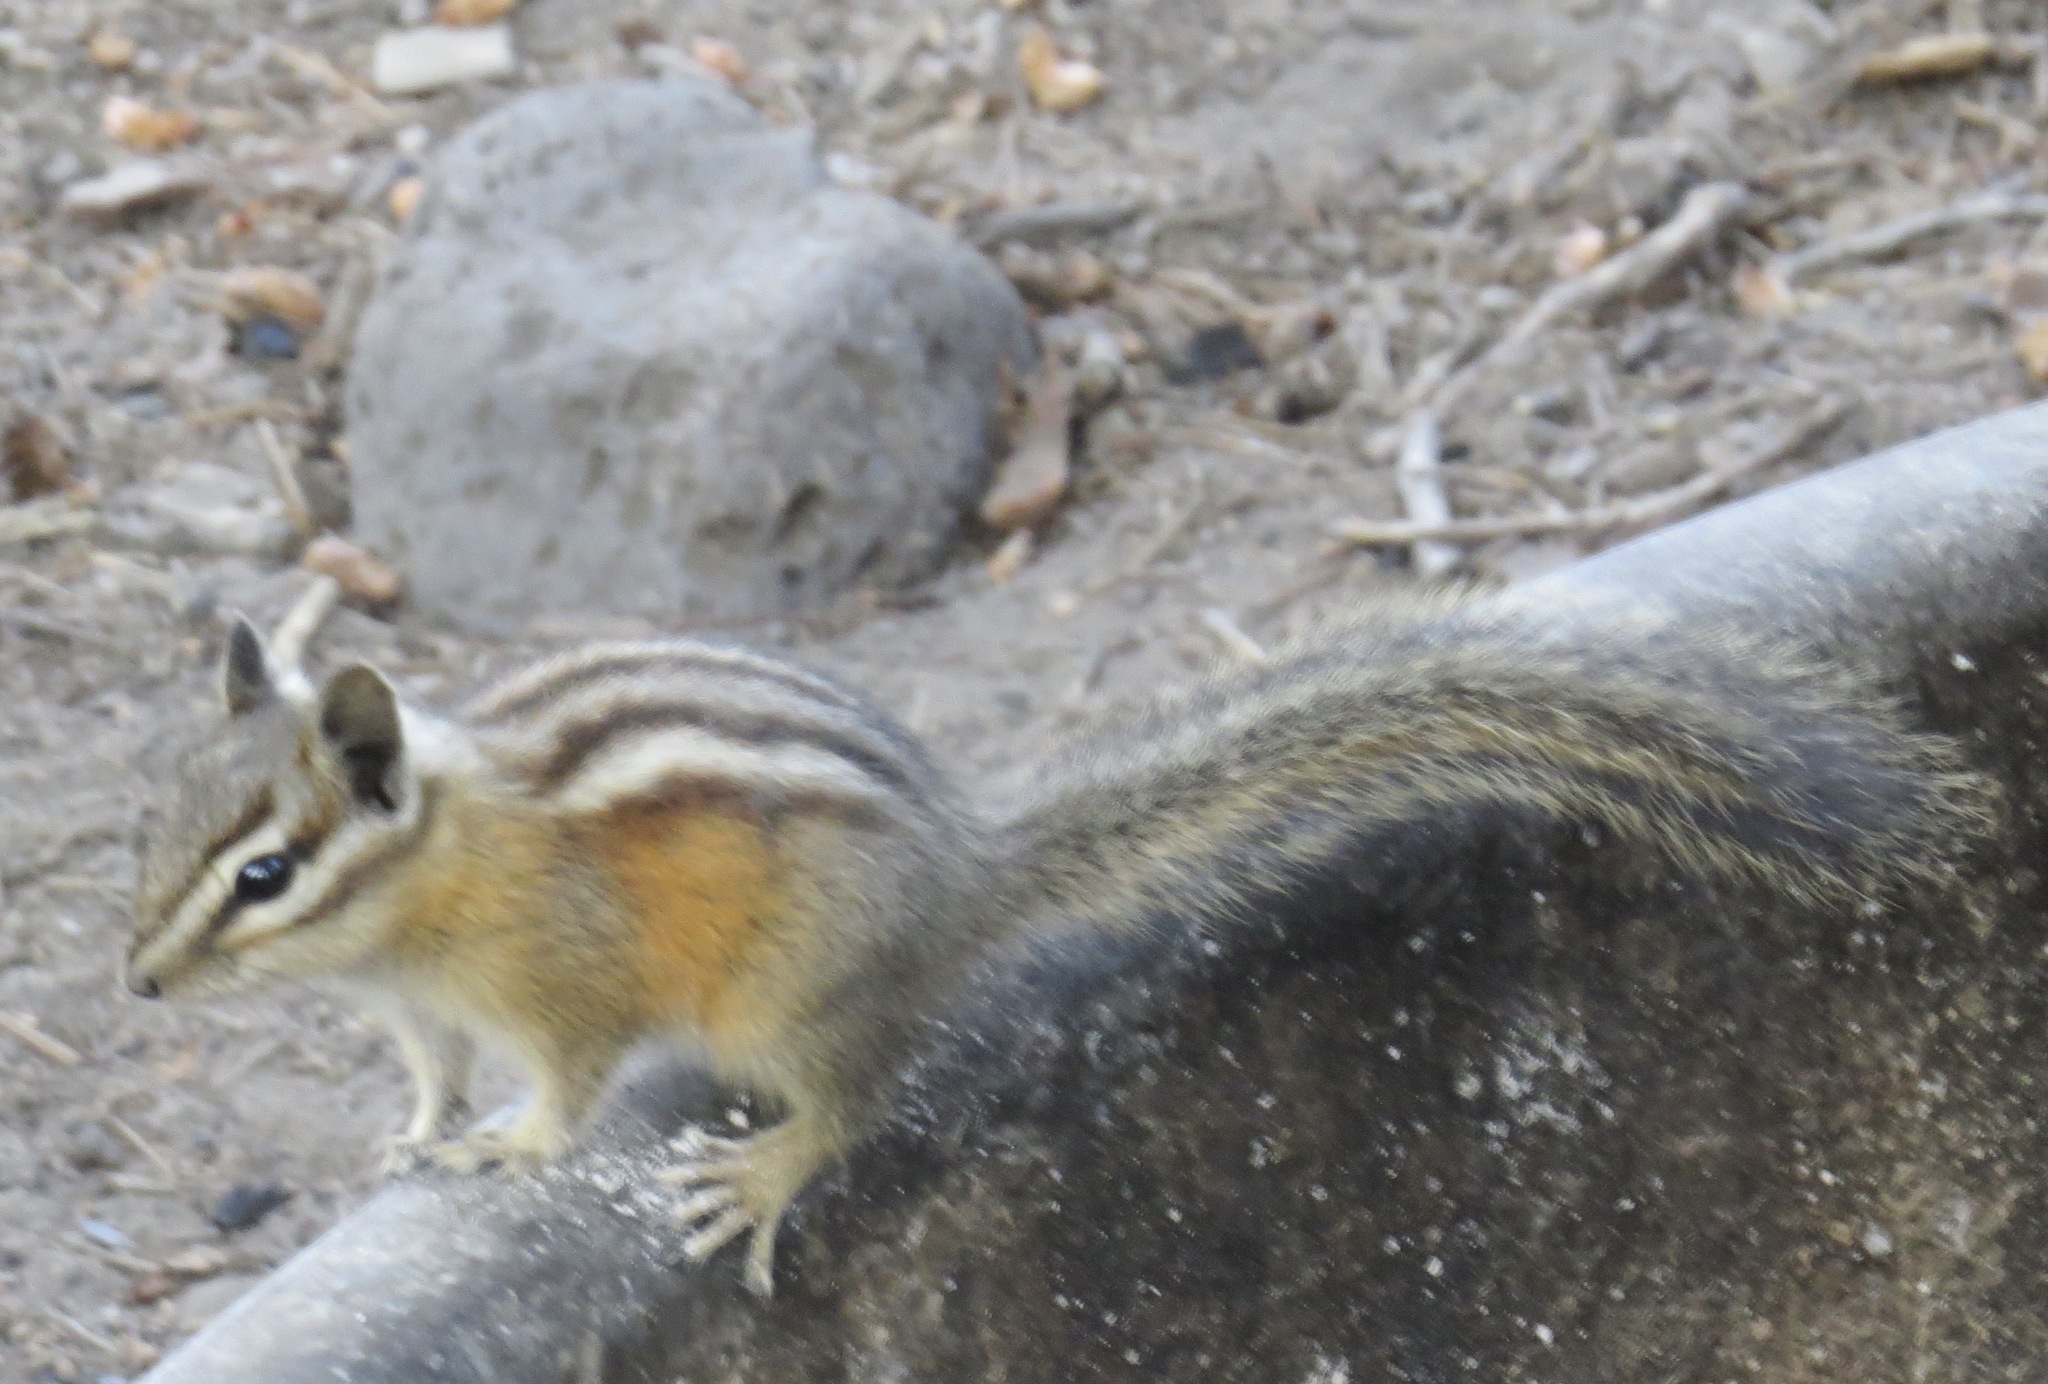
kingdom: Animalia
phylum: Chordata
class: Mammalia
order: Rodentia
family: Sciuridae
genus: Tamias
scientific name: Tamias amoenus
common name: Yellow-pine chipmunk
